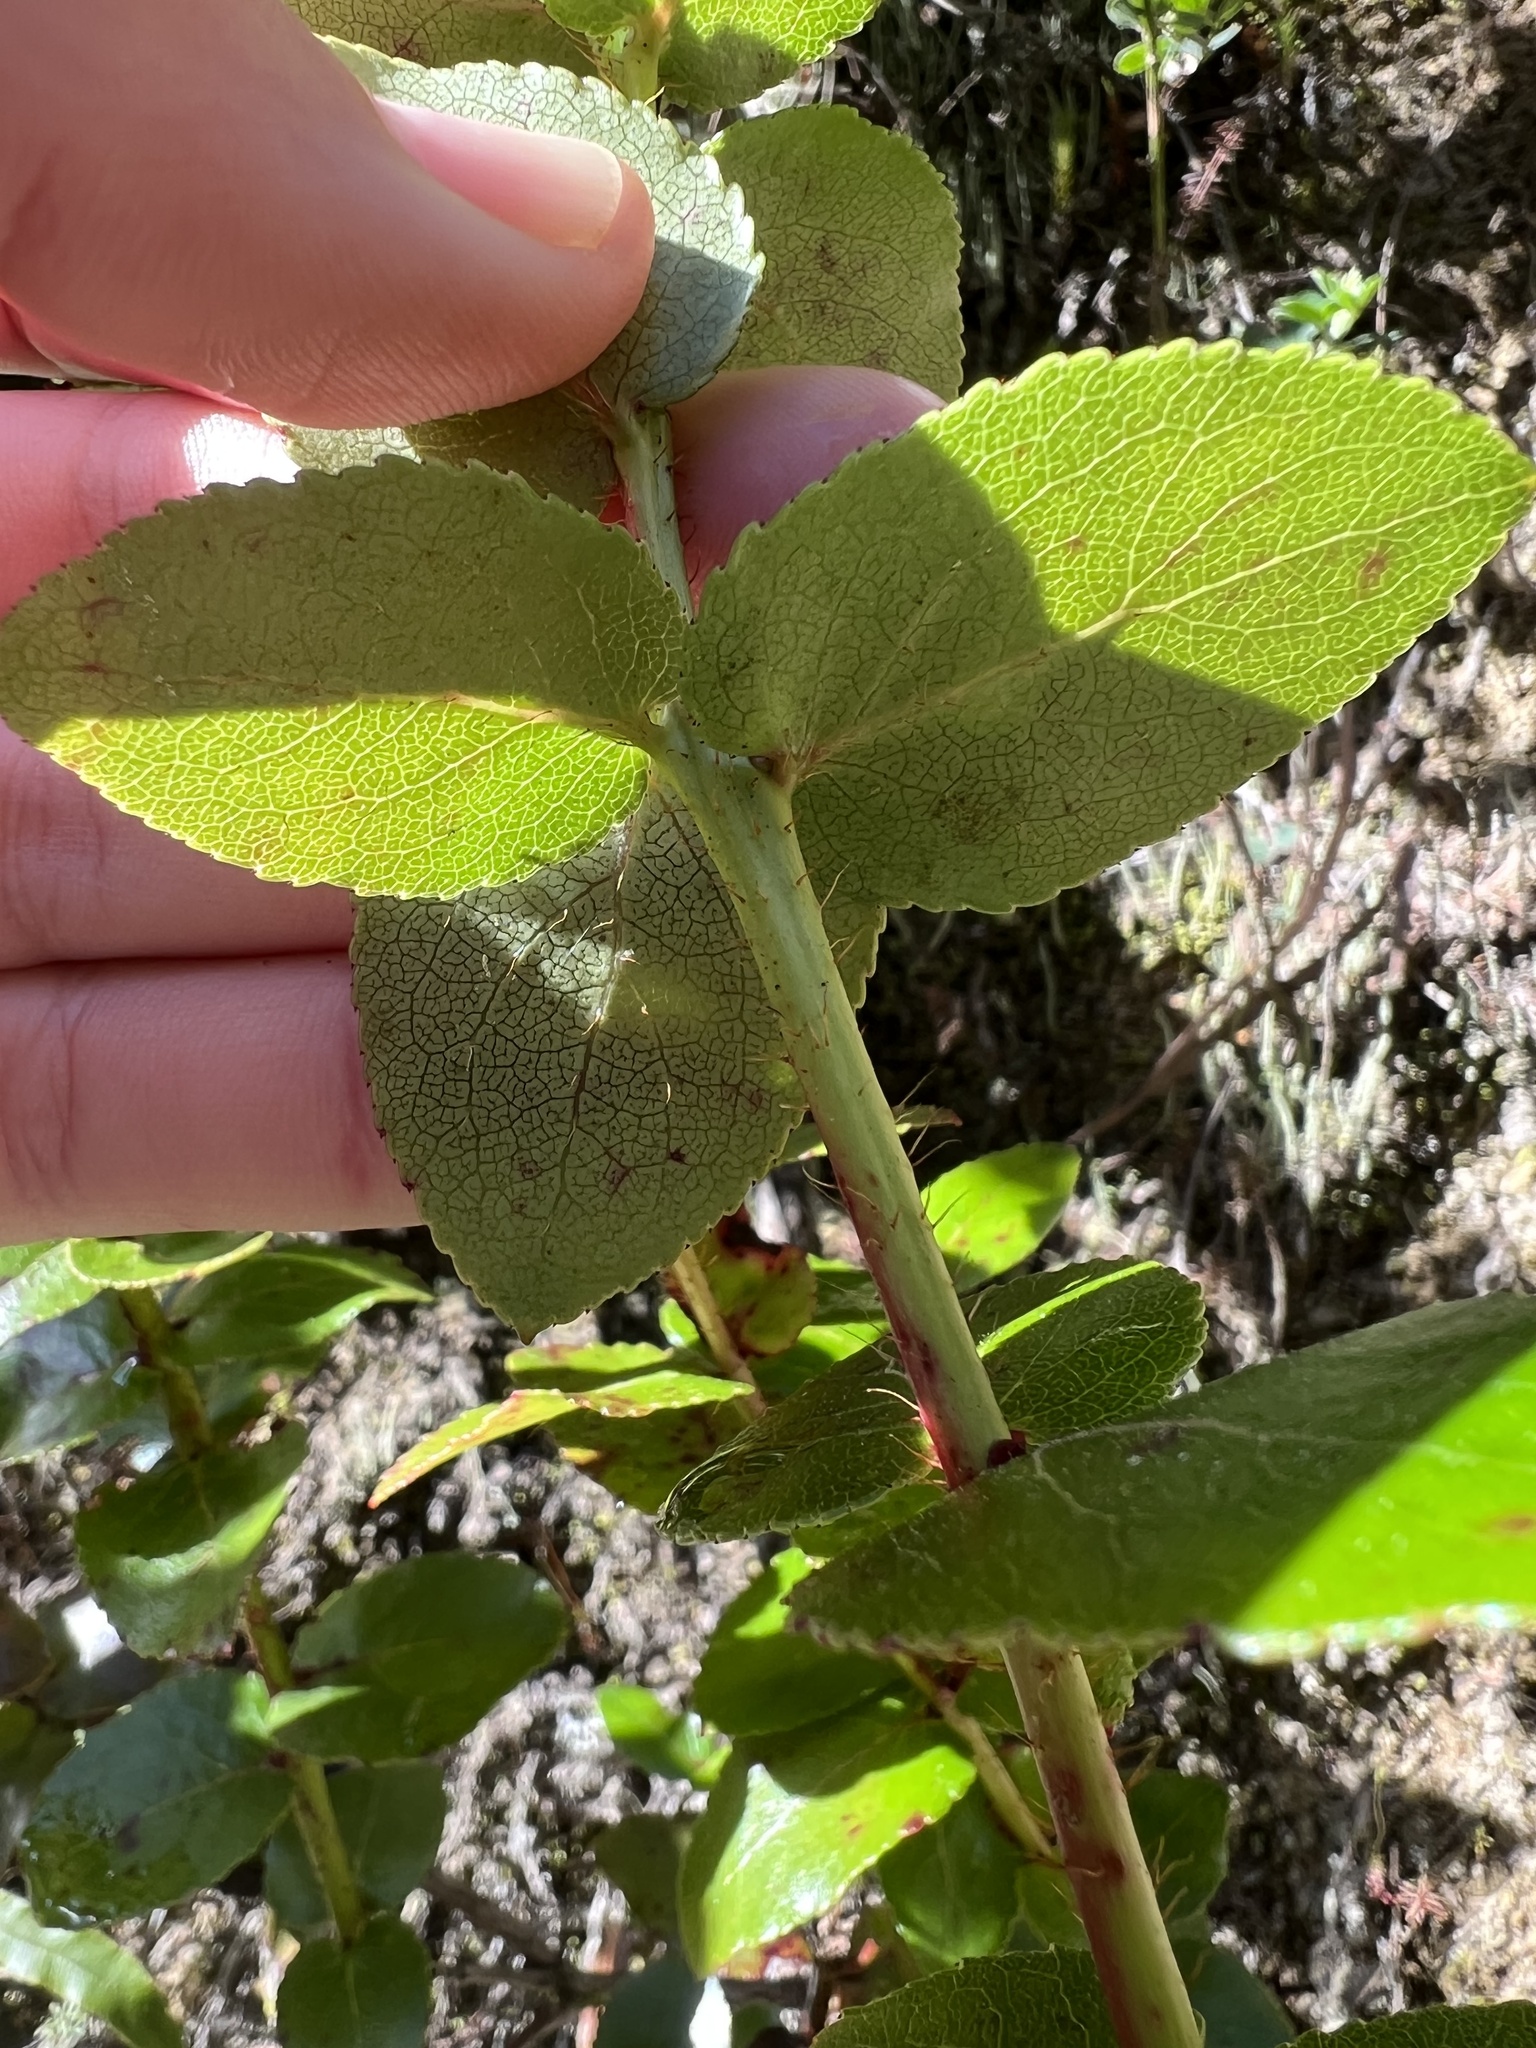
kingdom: Plantae
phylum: Tracheophyta
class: Magnoliopsida
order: Ericales
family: Ericaceae
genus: Gaultheria
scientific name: Gaultheria oppositifolia
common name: Snowberry
